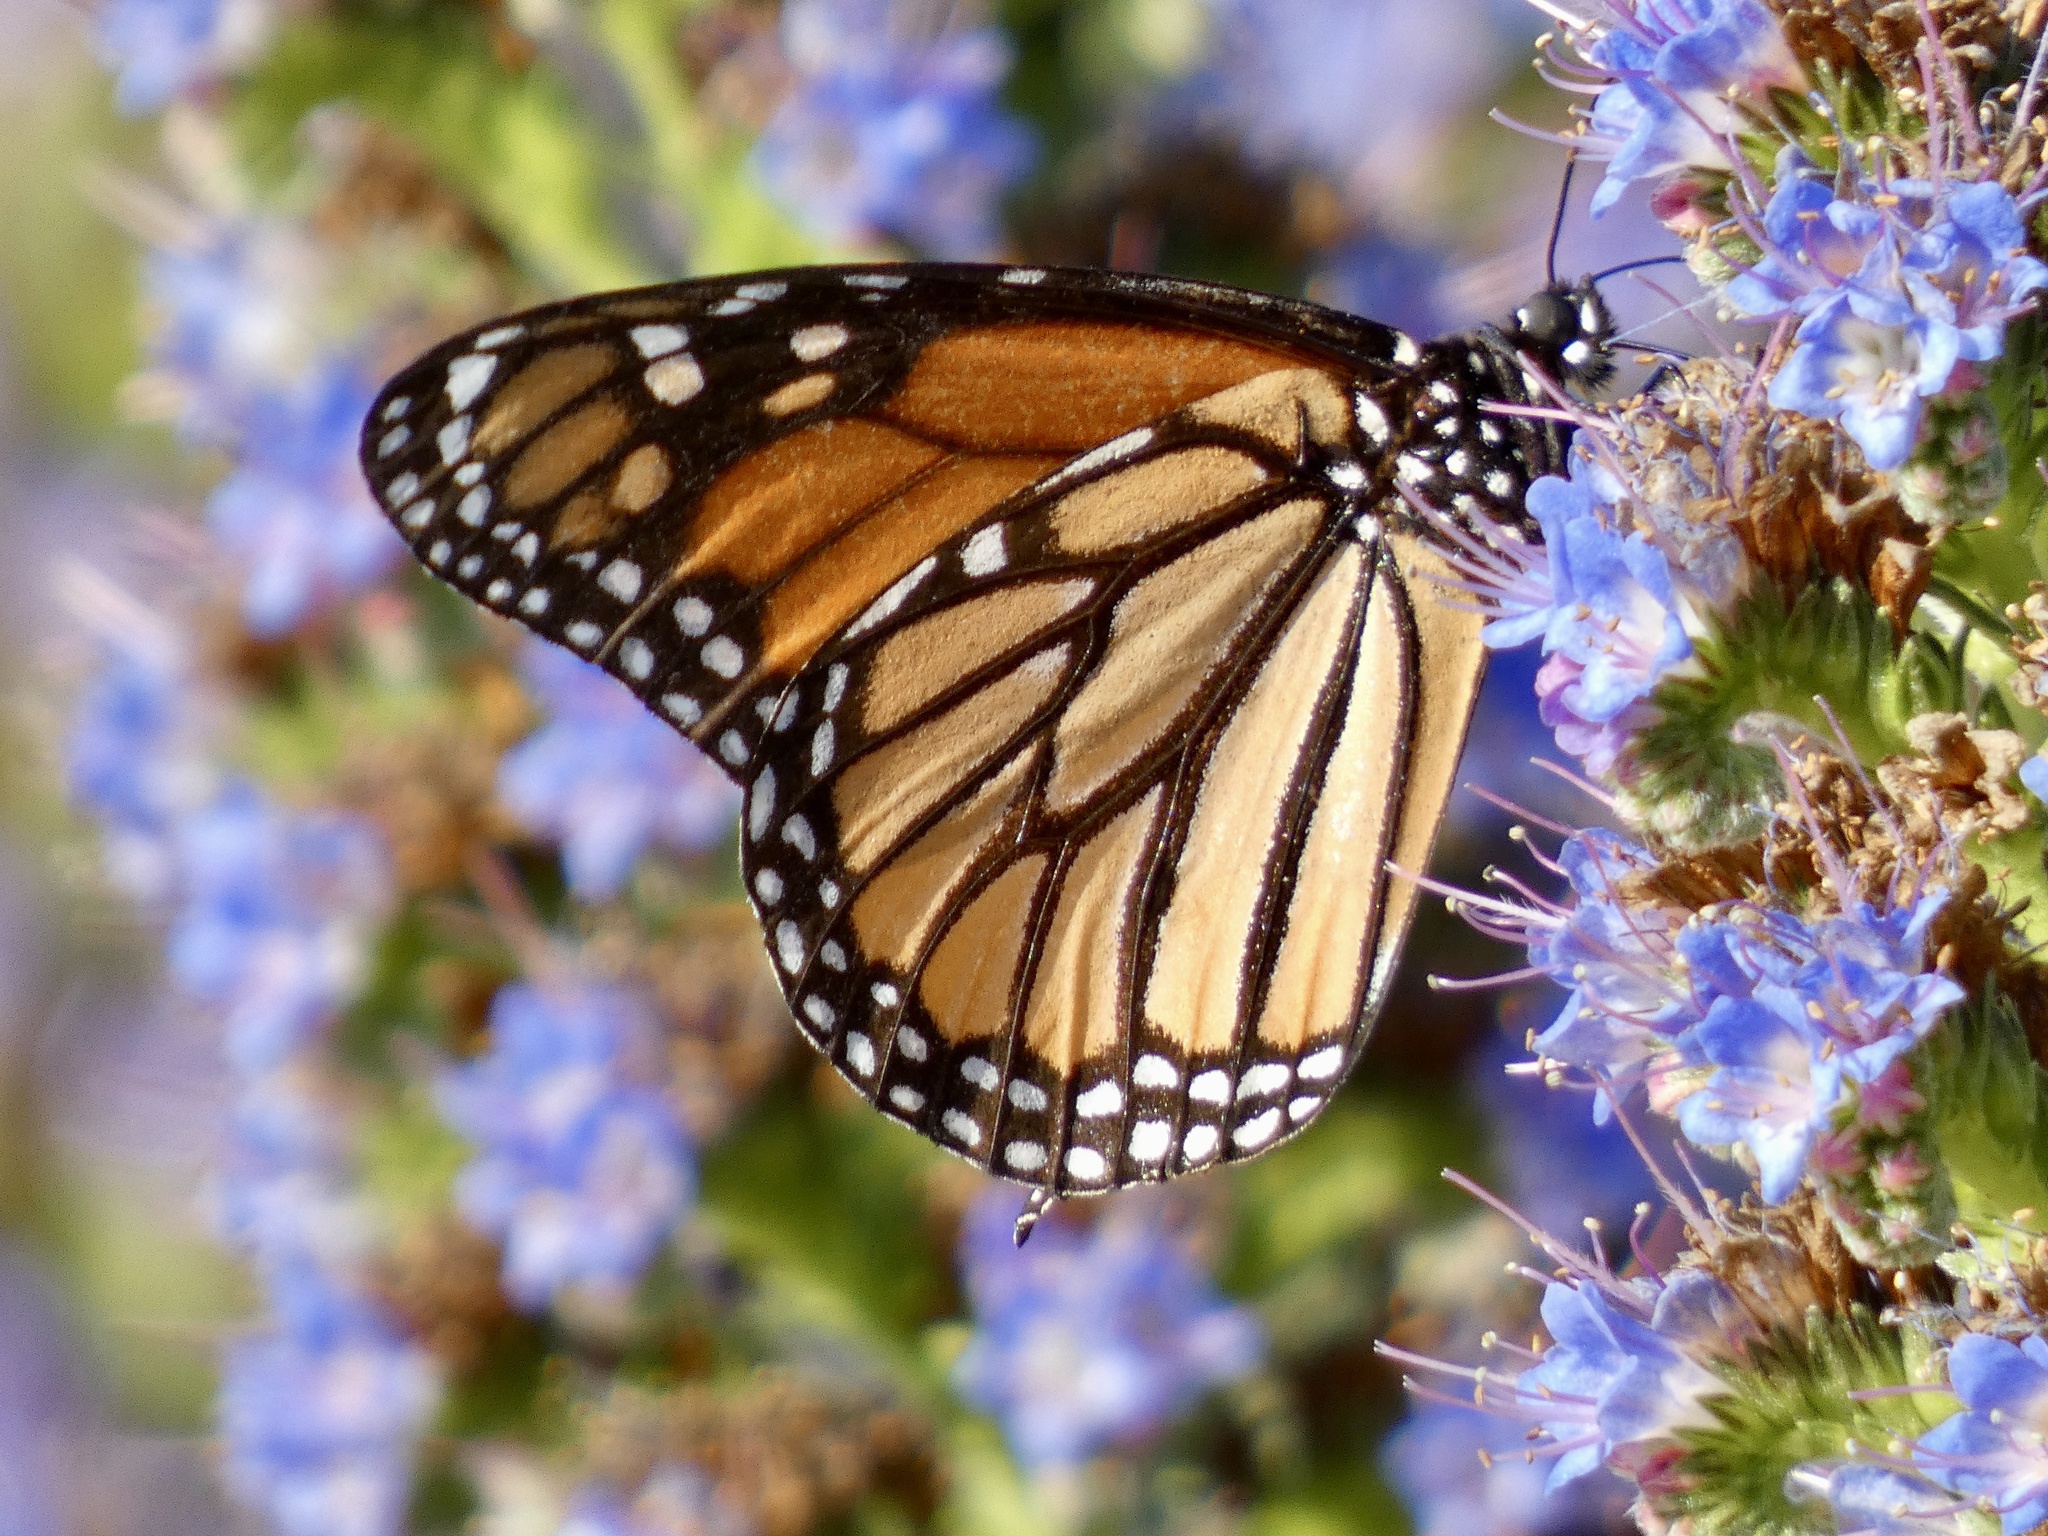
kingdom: Animalia
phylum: Arthropoda
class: Insecta
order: Lepidoptera
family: Nymphalidae
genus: Danaus
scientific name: Danaus plexippus
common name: Monarch
